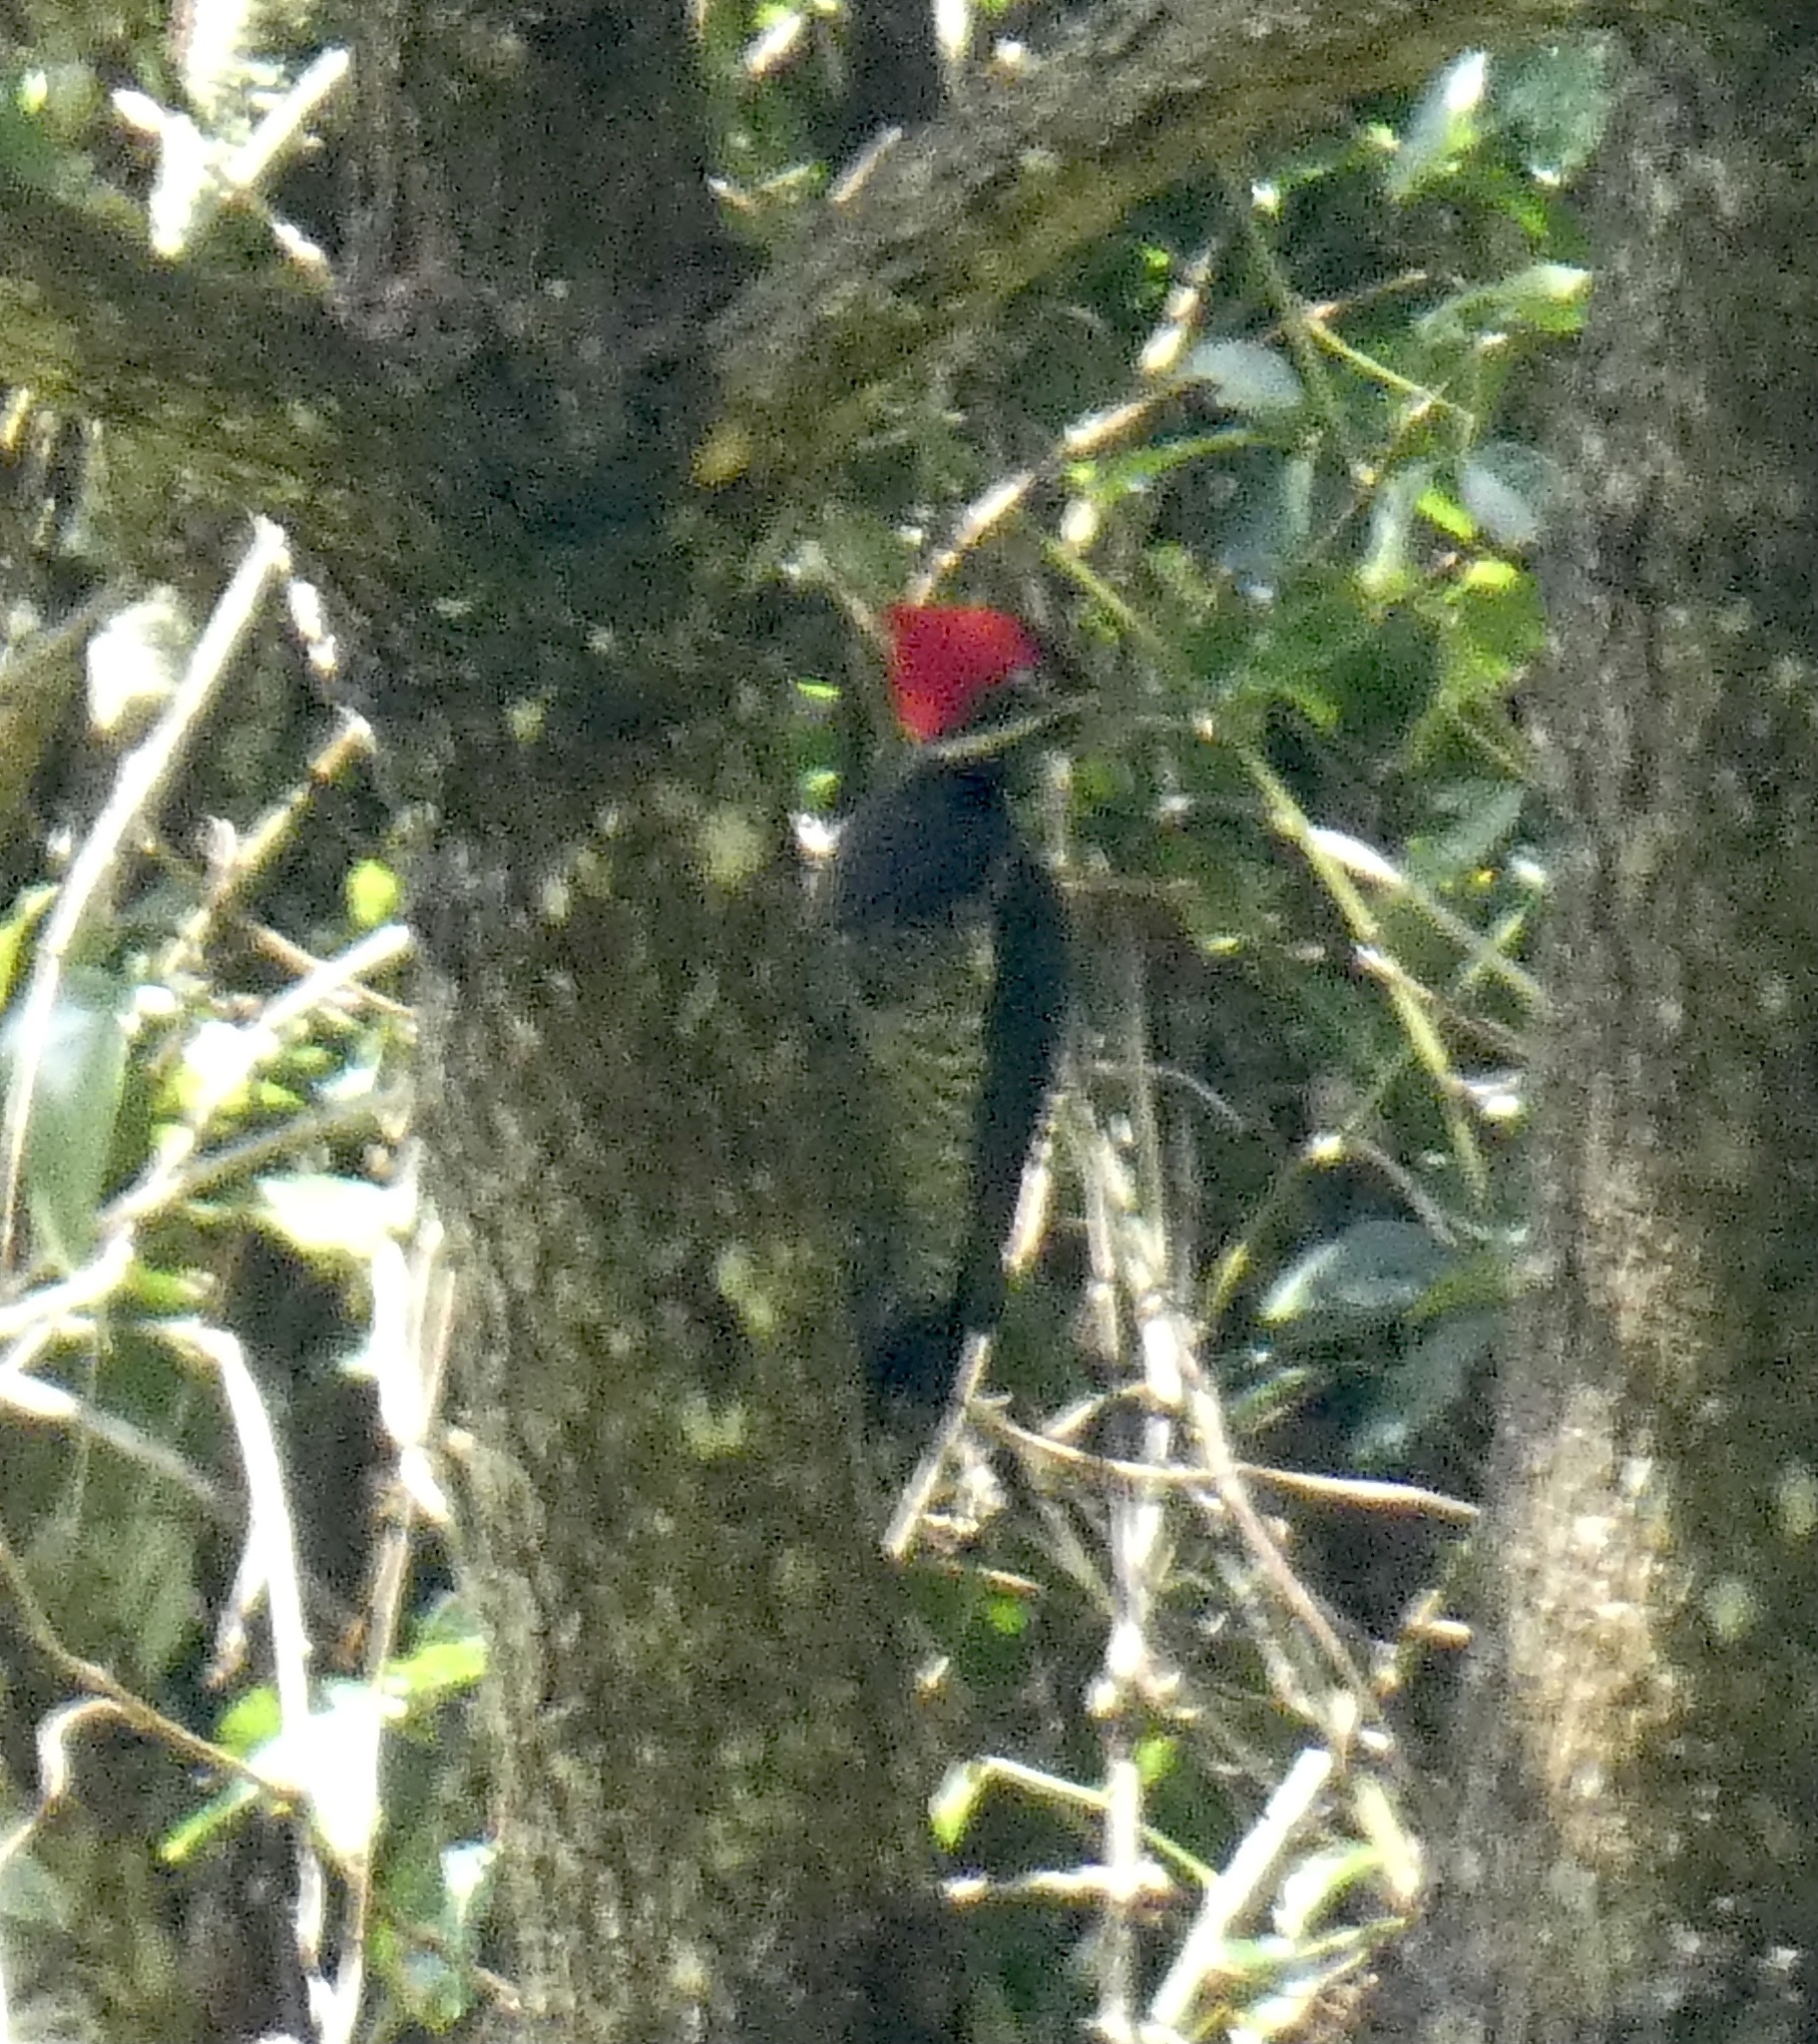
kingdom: Animalia
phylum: Chordata
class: Aves
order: Piciformes
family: Picidae
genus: Dryocopus
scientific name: Dryocopus lineatus
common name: Lineated woodpecker
